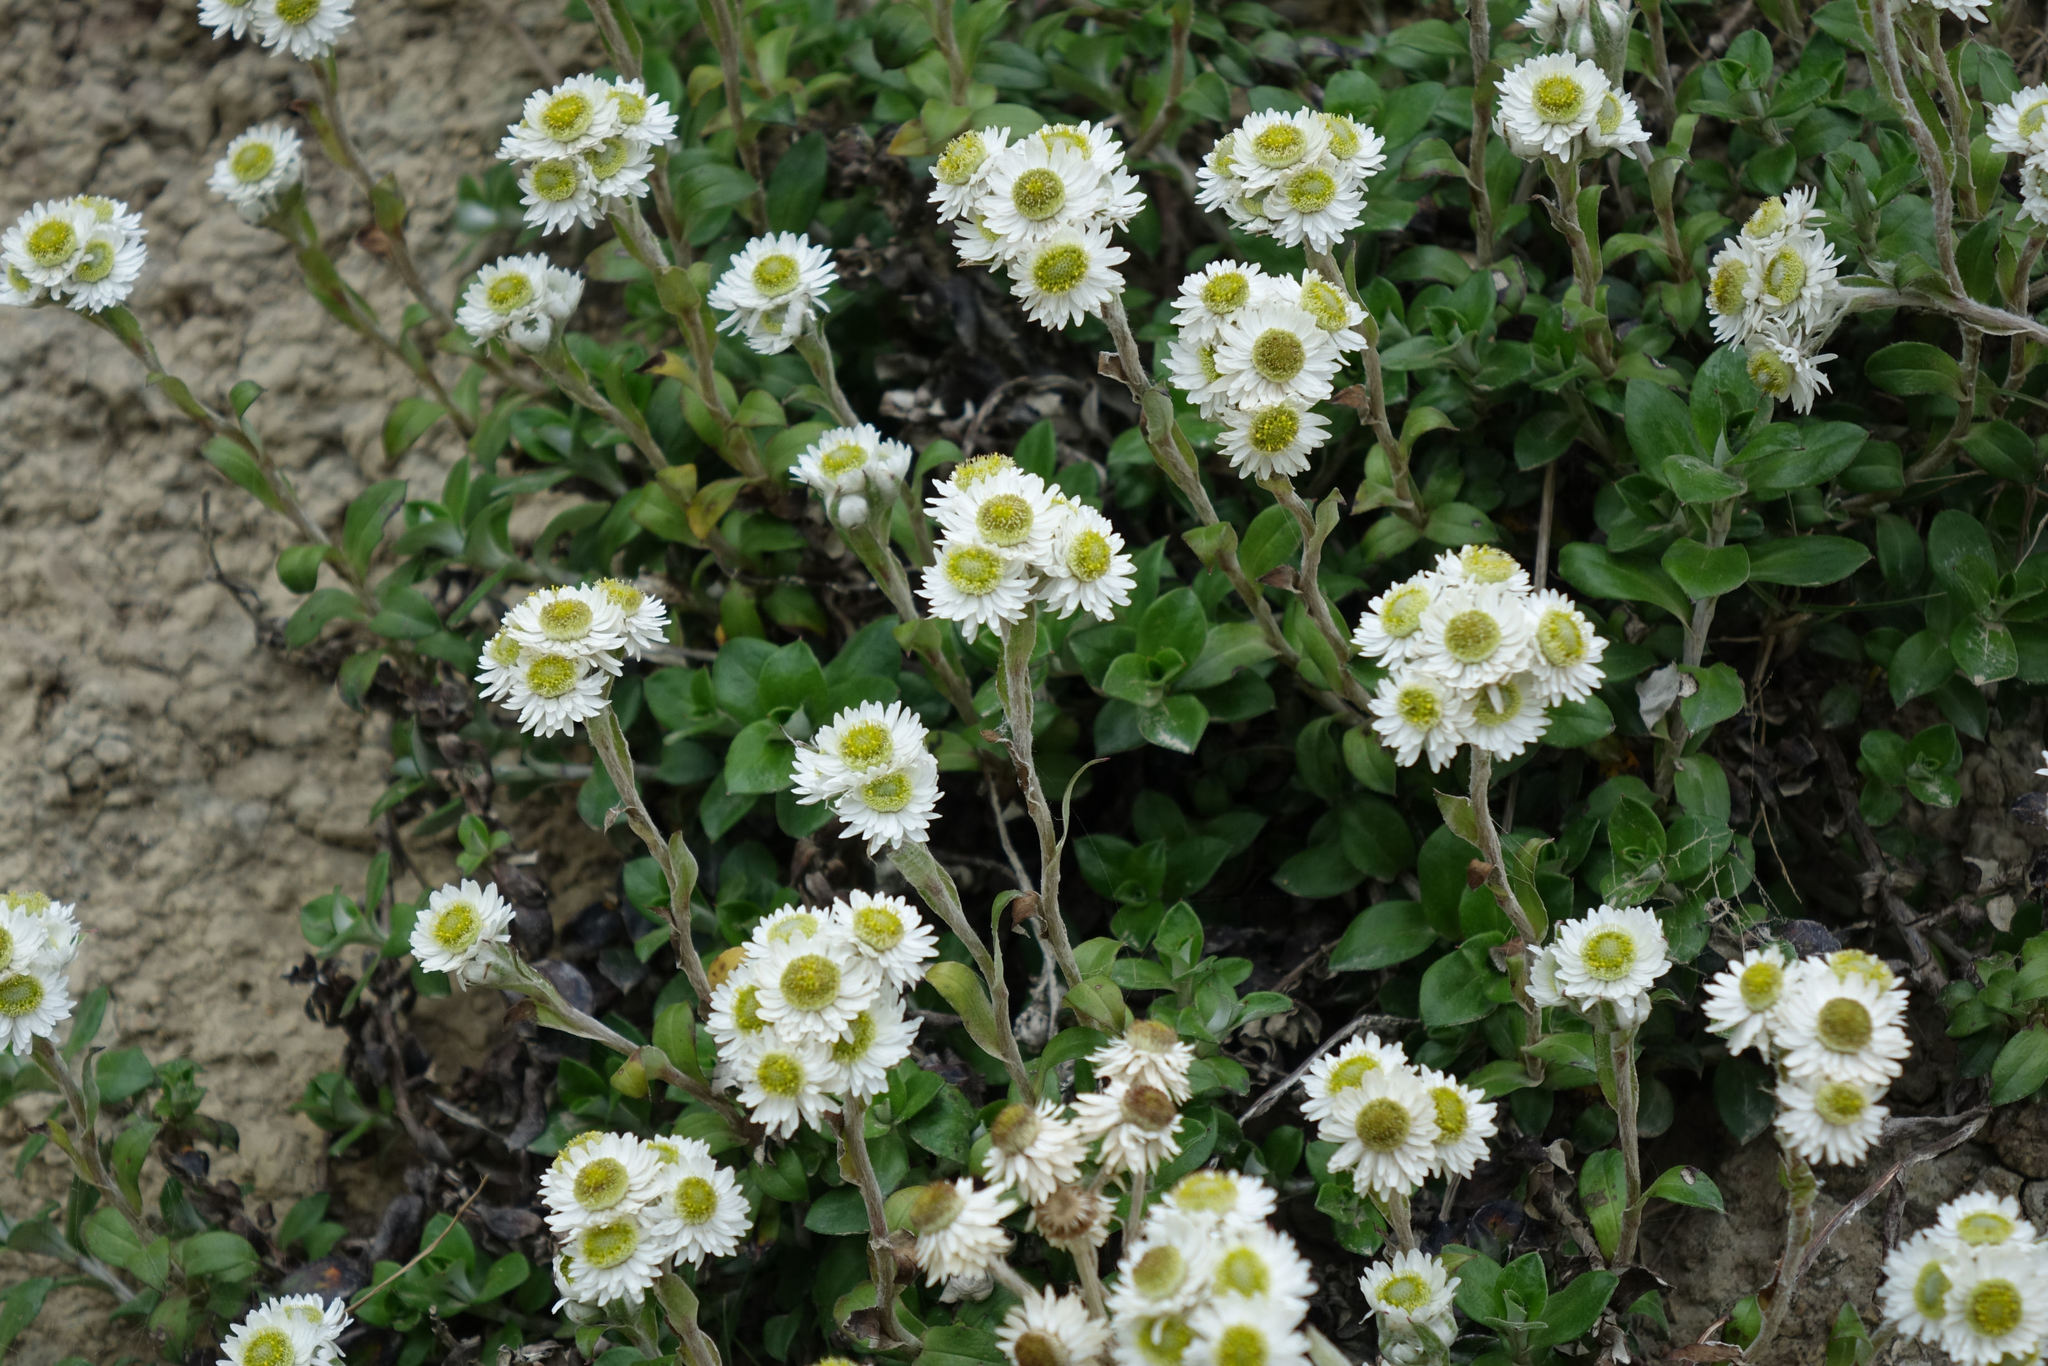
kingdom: Plantae
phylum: Tracheophyta
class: Magnoliopsida
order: Asterales
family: Asteraceae
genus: Anaphalioides
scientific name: Anaphalioides hookeri
